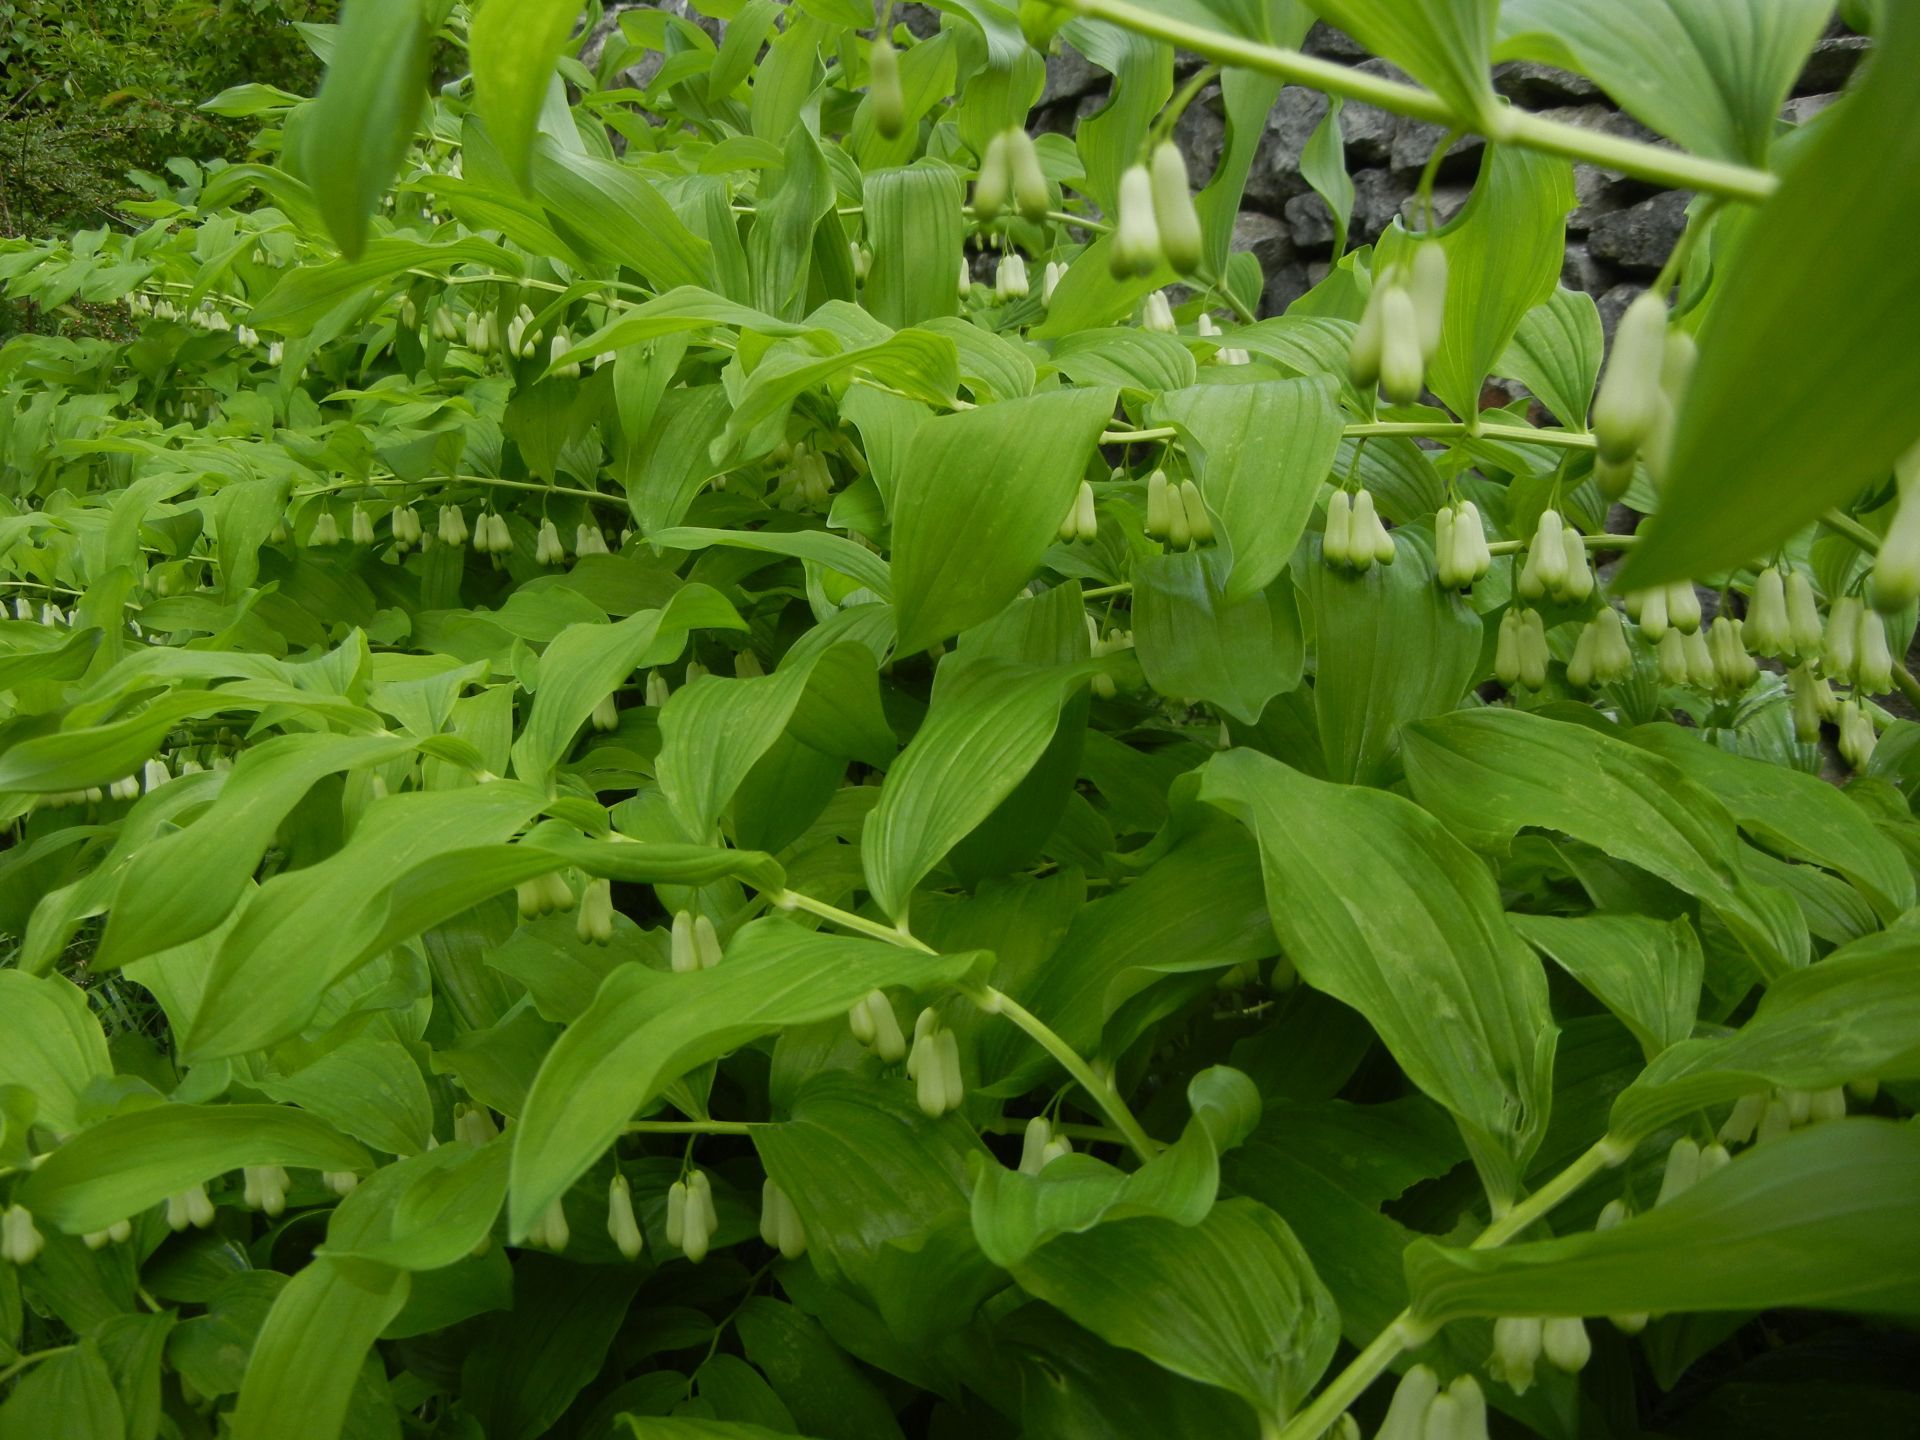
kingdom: Plantae
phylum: Tracheophyta
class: Liliopsida
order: Asparagales
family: Asparagaceae
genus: Polygonatum
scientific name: Polygonatum multiflorum
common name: Solomon's-seal
